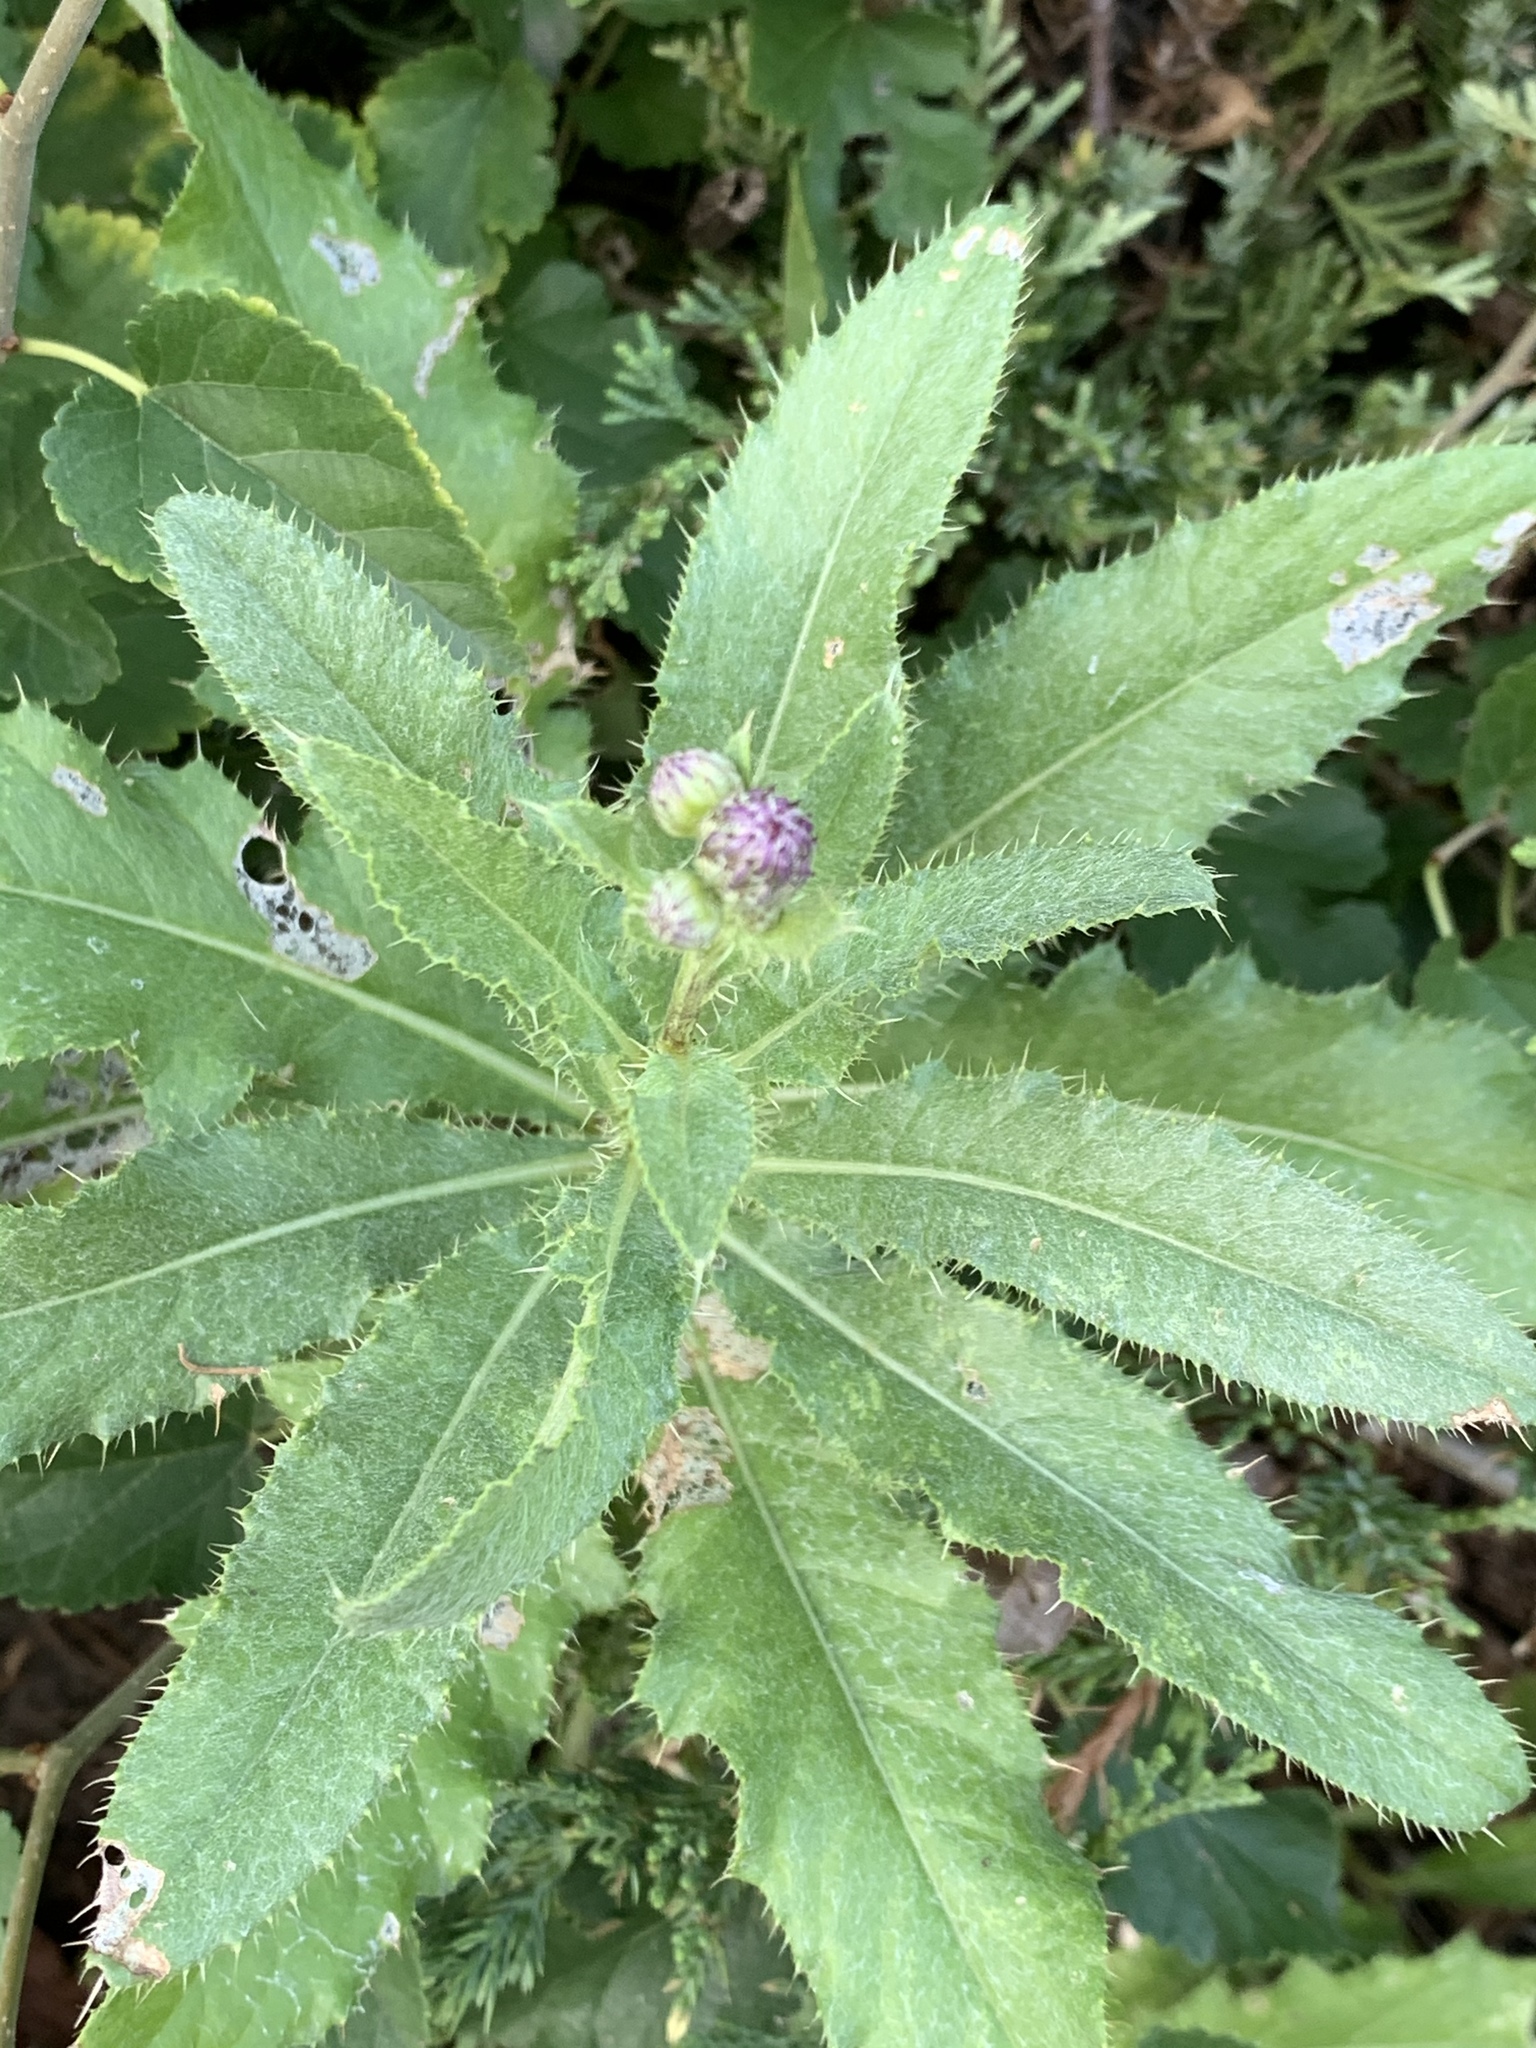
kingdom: Plantae
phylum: Tracheophyta
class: Magnoliopsida
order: Asterales
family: Asteraceae
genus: Cirsium
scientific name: Cirsium arvense
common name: Creeping thistle
